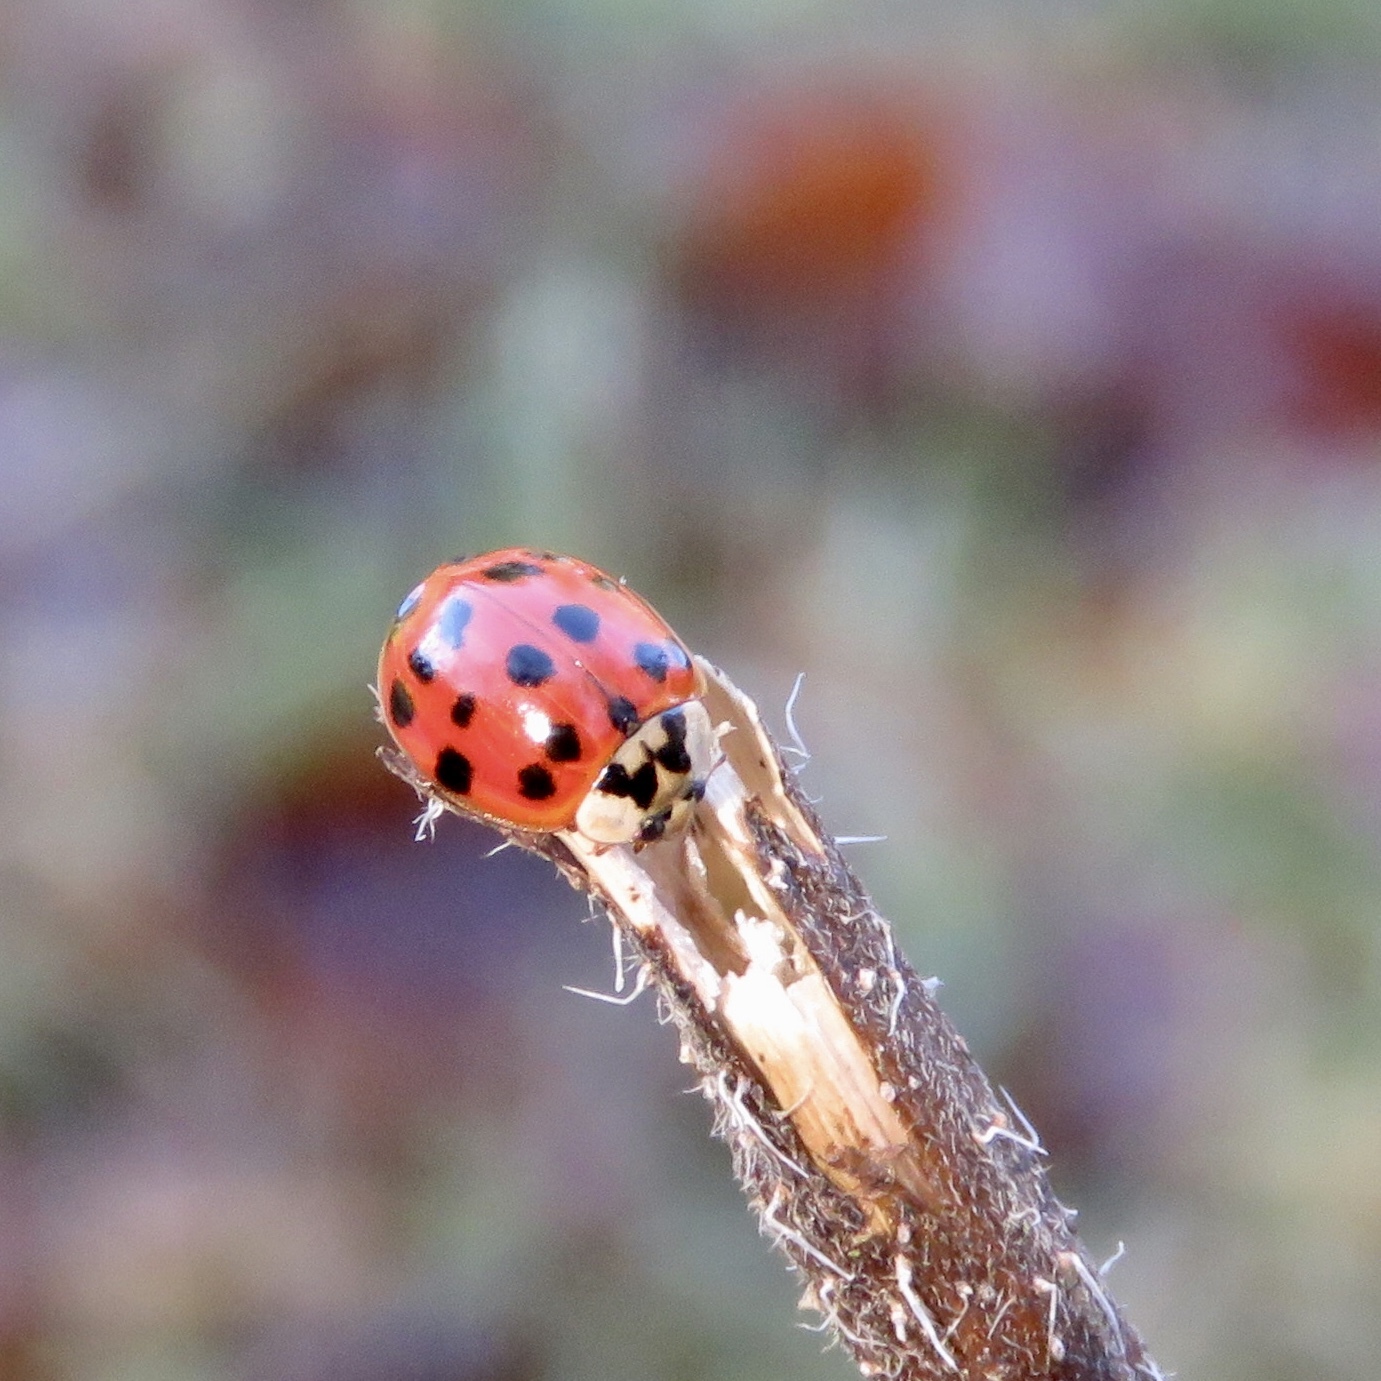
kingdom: Animalia
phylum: Arthropoda
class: Insecta
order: Coleoptera
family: Coccinellidae
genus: Harmonia
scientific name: Harmonia axyridis
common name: Harlequin ladybird
